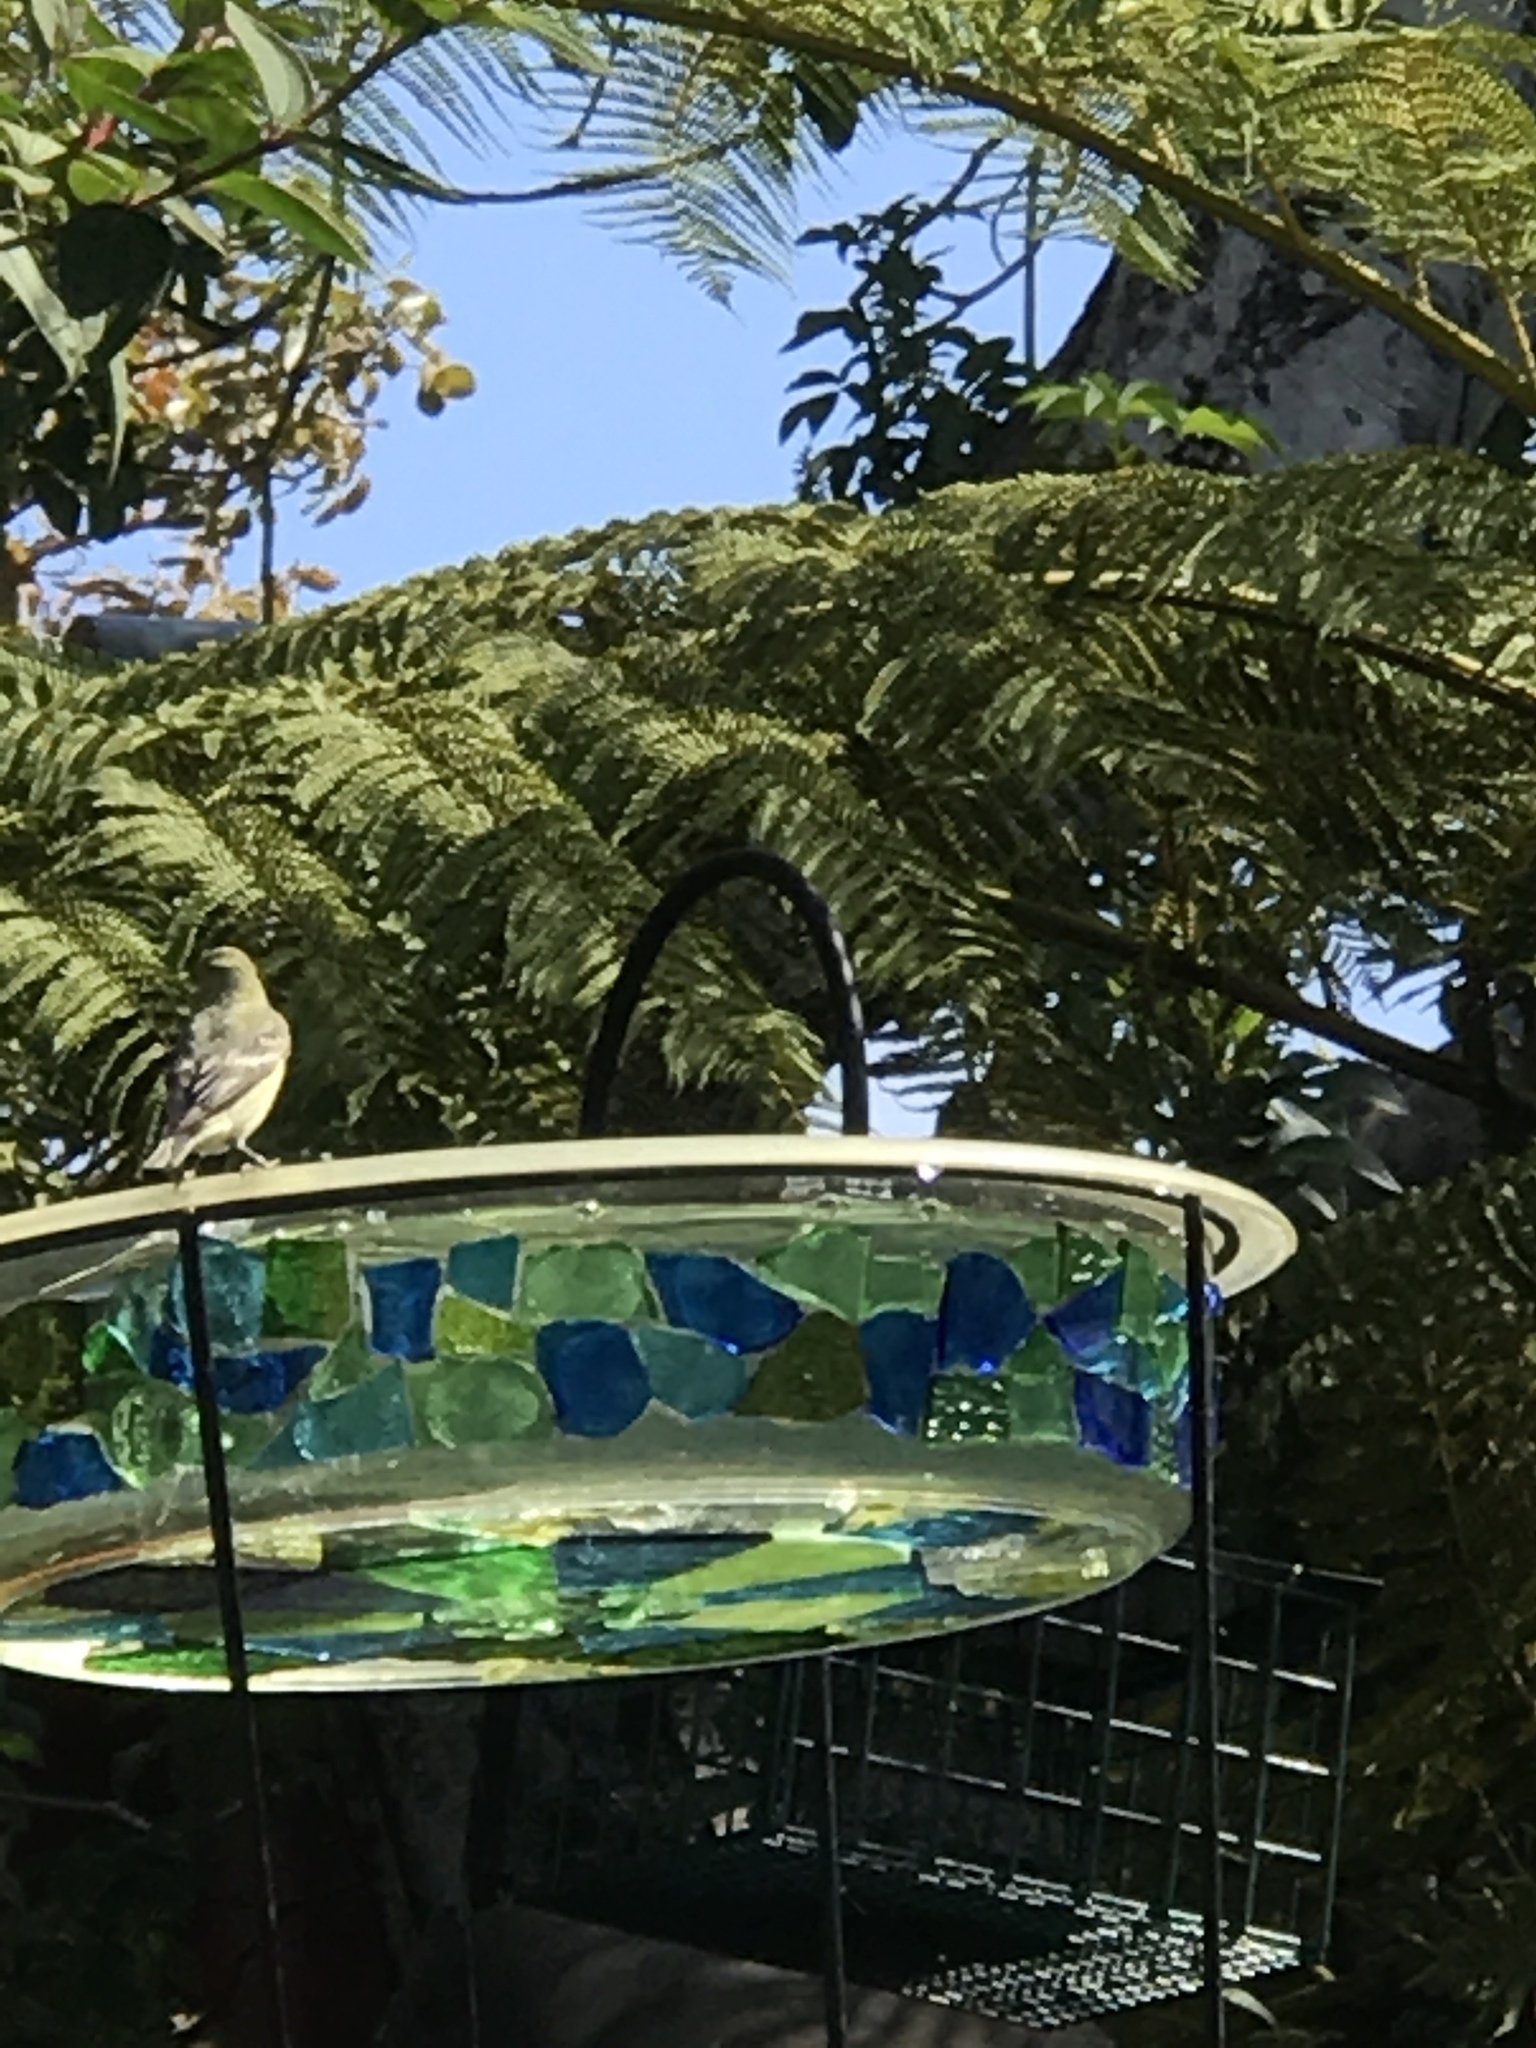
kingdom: Animalia
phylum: Chordata
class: Aves
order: Passeriformes
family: Fringillidae
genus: Spinus
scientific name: Spinus psaltria
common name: Lesser goldfinch
